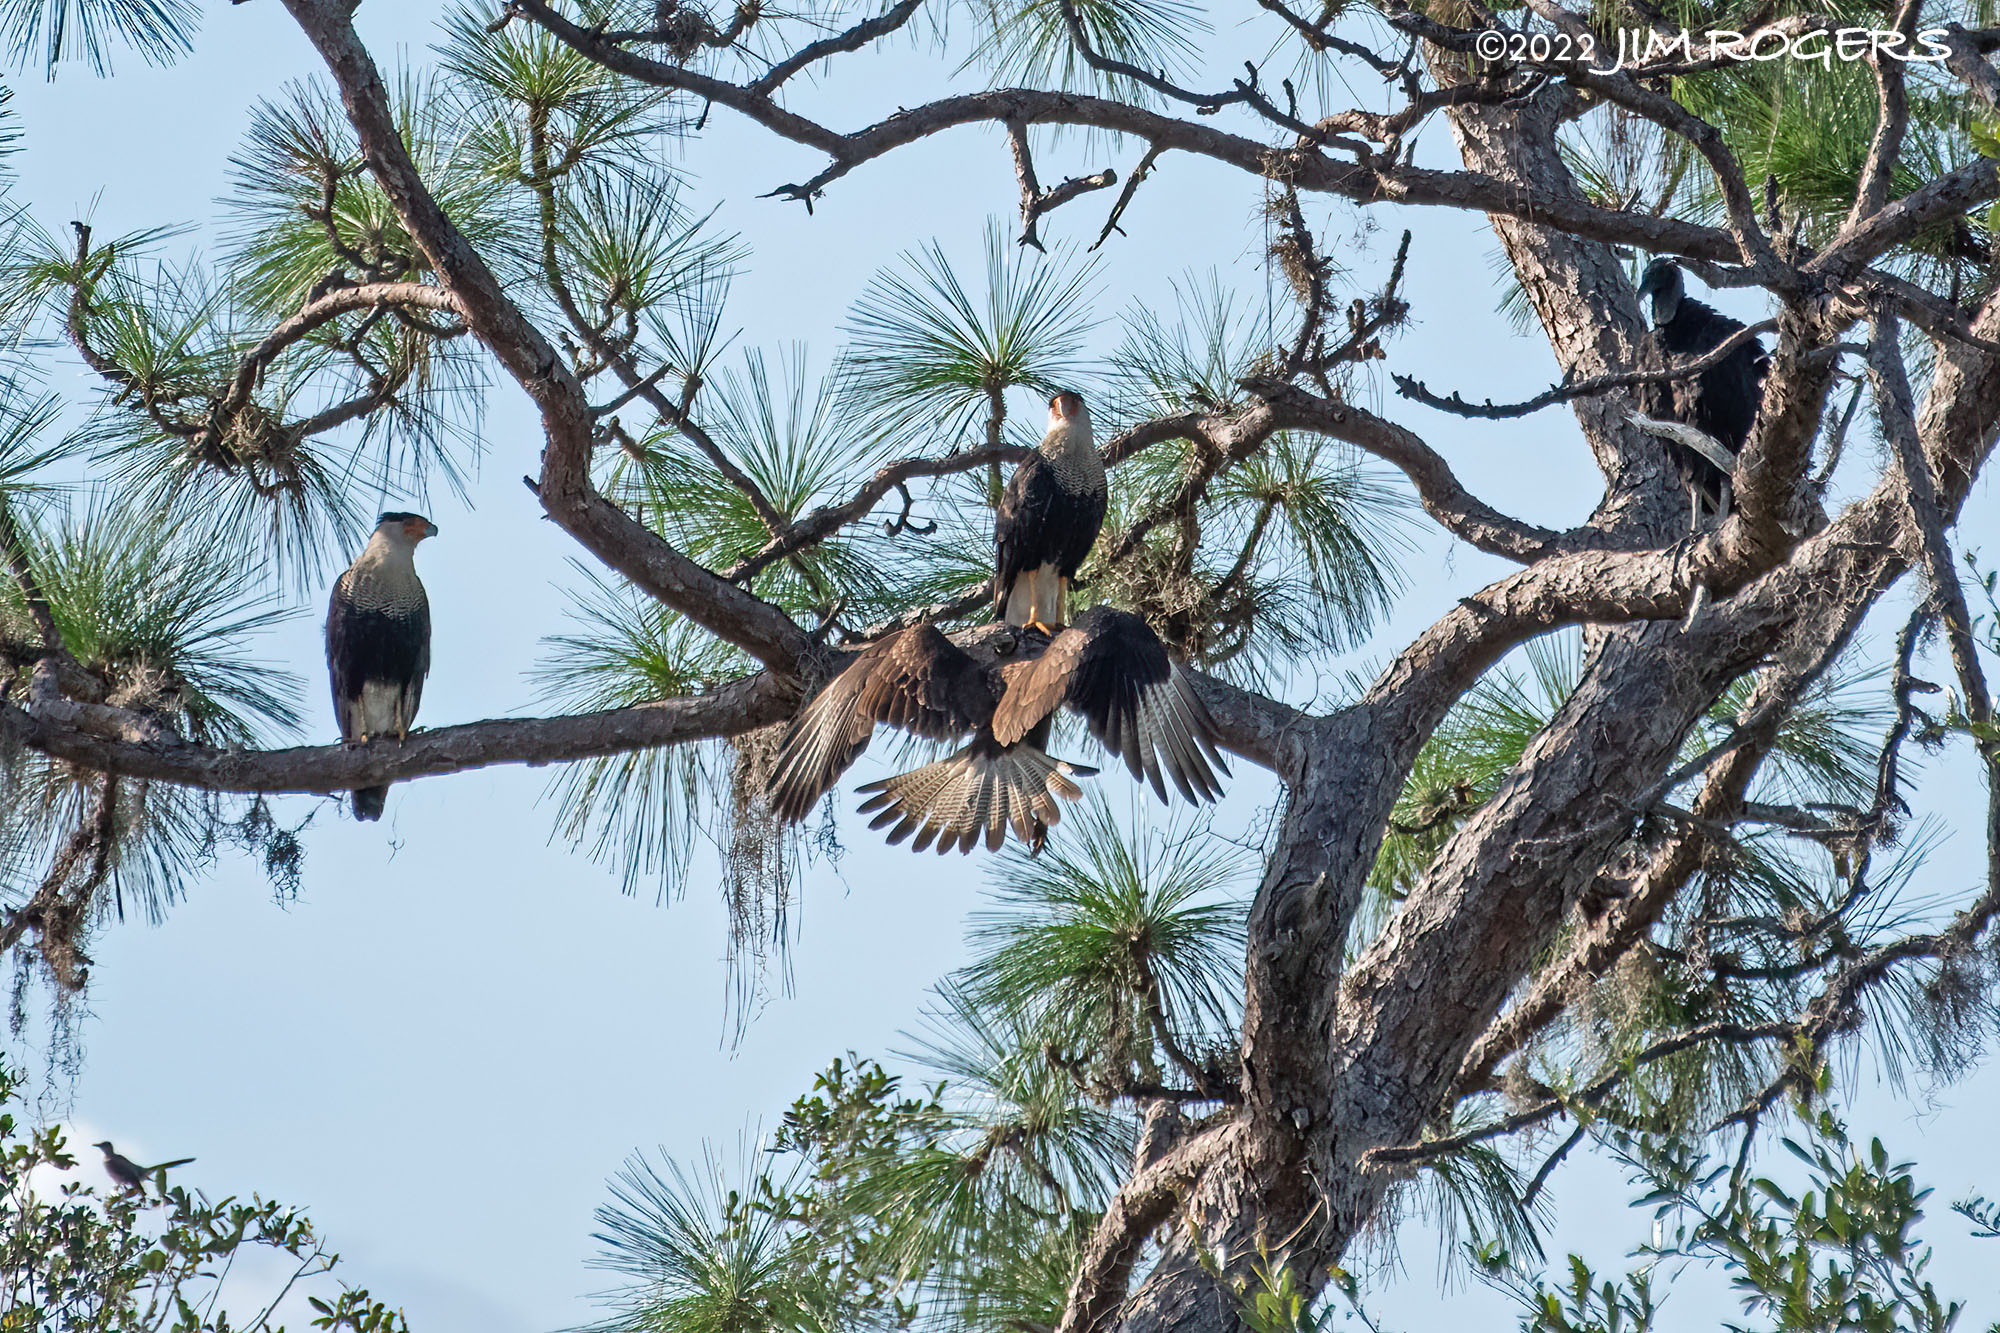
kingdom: Animalia
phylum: Chordata
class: Aves
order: Falconiformes
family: Falconidae
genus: Caracara
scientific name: Caracara plancus
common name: Southern caracara
